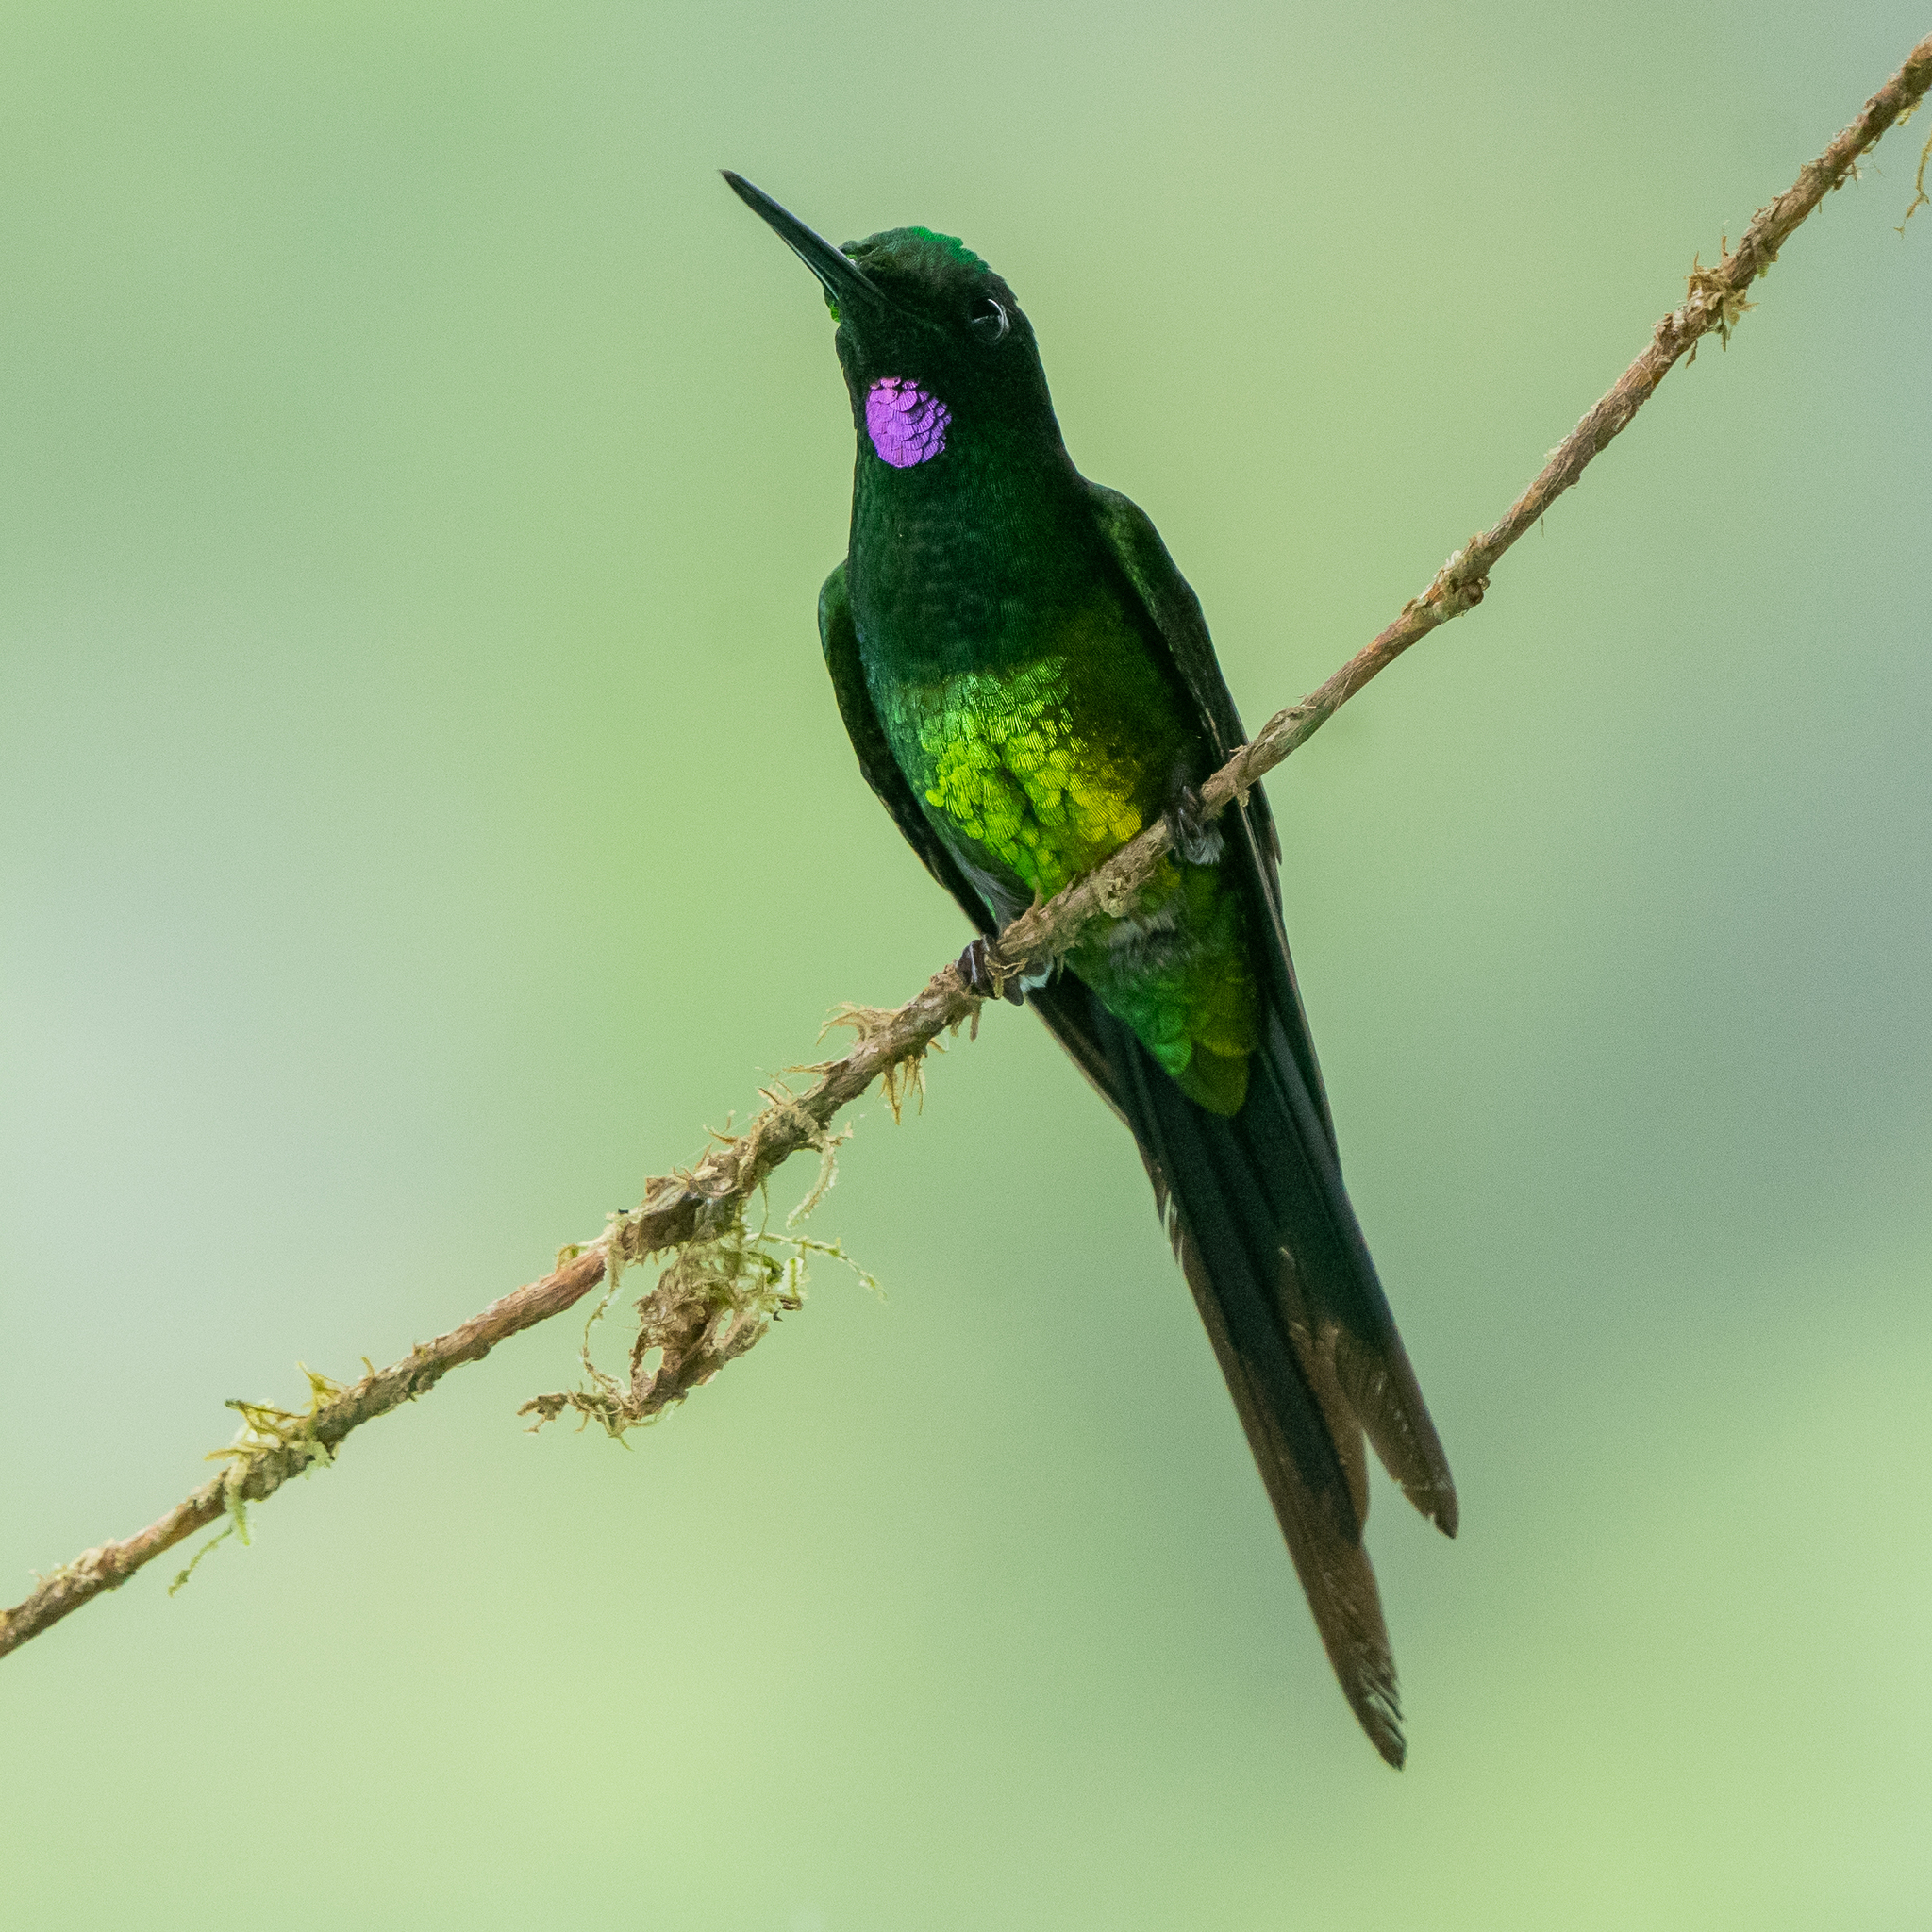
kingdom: Animalia
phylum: Chordata
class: Aves
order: Apodiformes
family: Trochilidae
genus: Heliodoxa
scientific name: Heliodoxa imperatrix
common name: Empress brilliant
